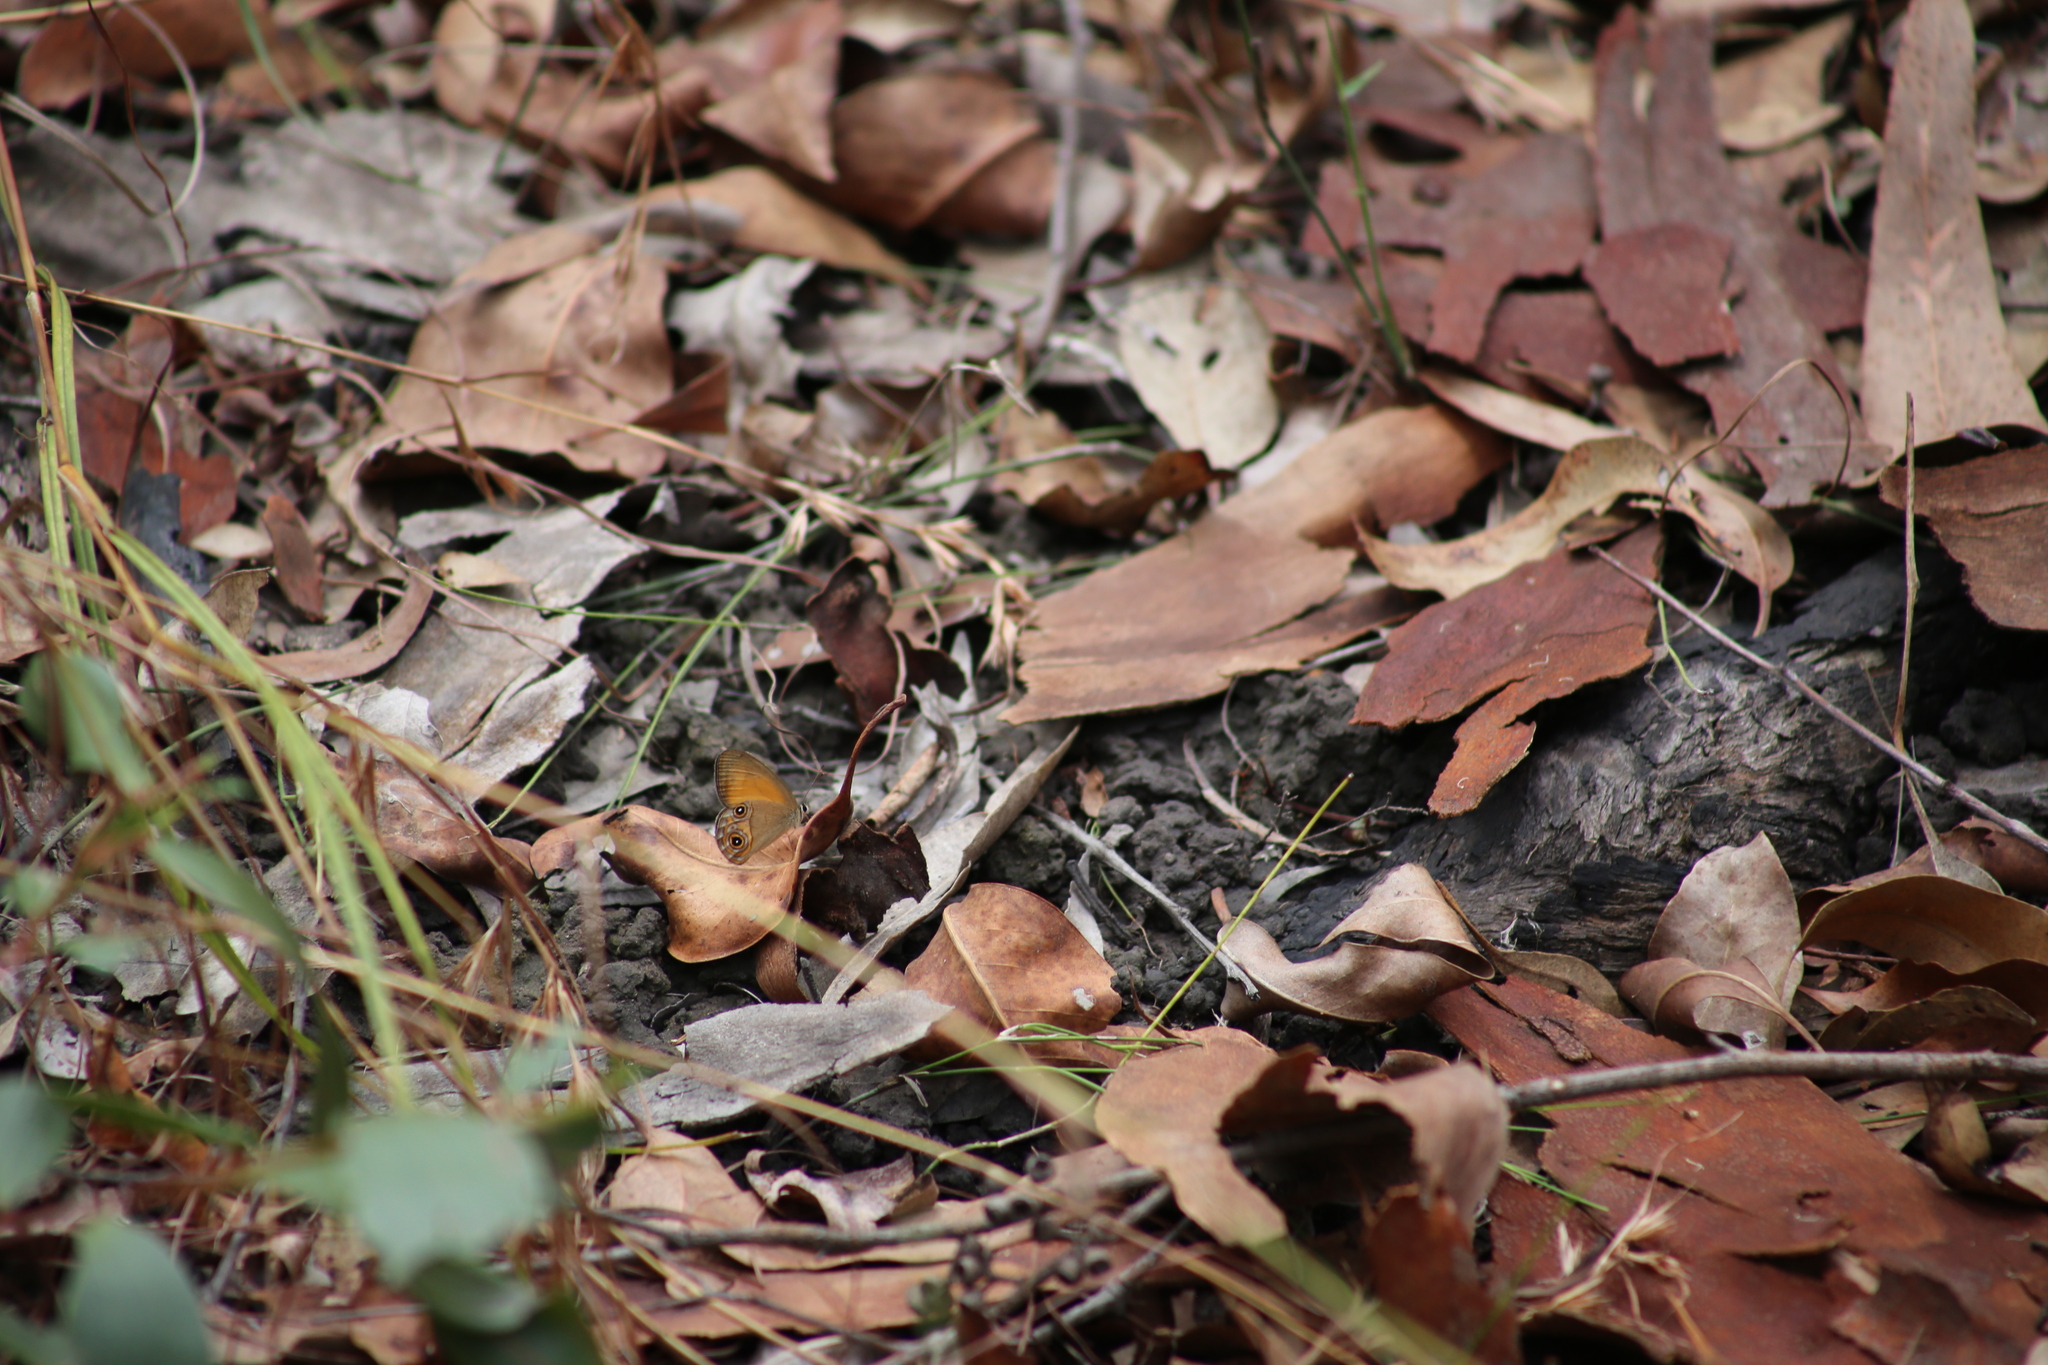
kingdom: Animalia
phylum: Arthropoda
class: Insecta
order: Lepidoptera
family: Nymphalidae
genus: Hypocysta
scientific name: Hypocysta adiante
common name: Orange ringlet
